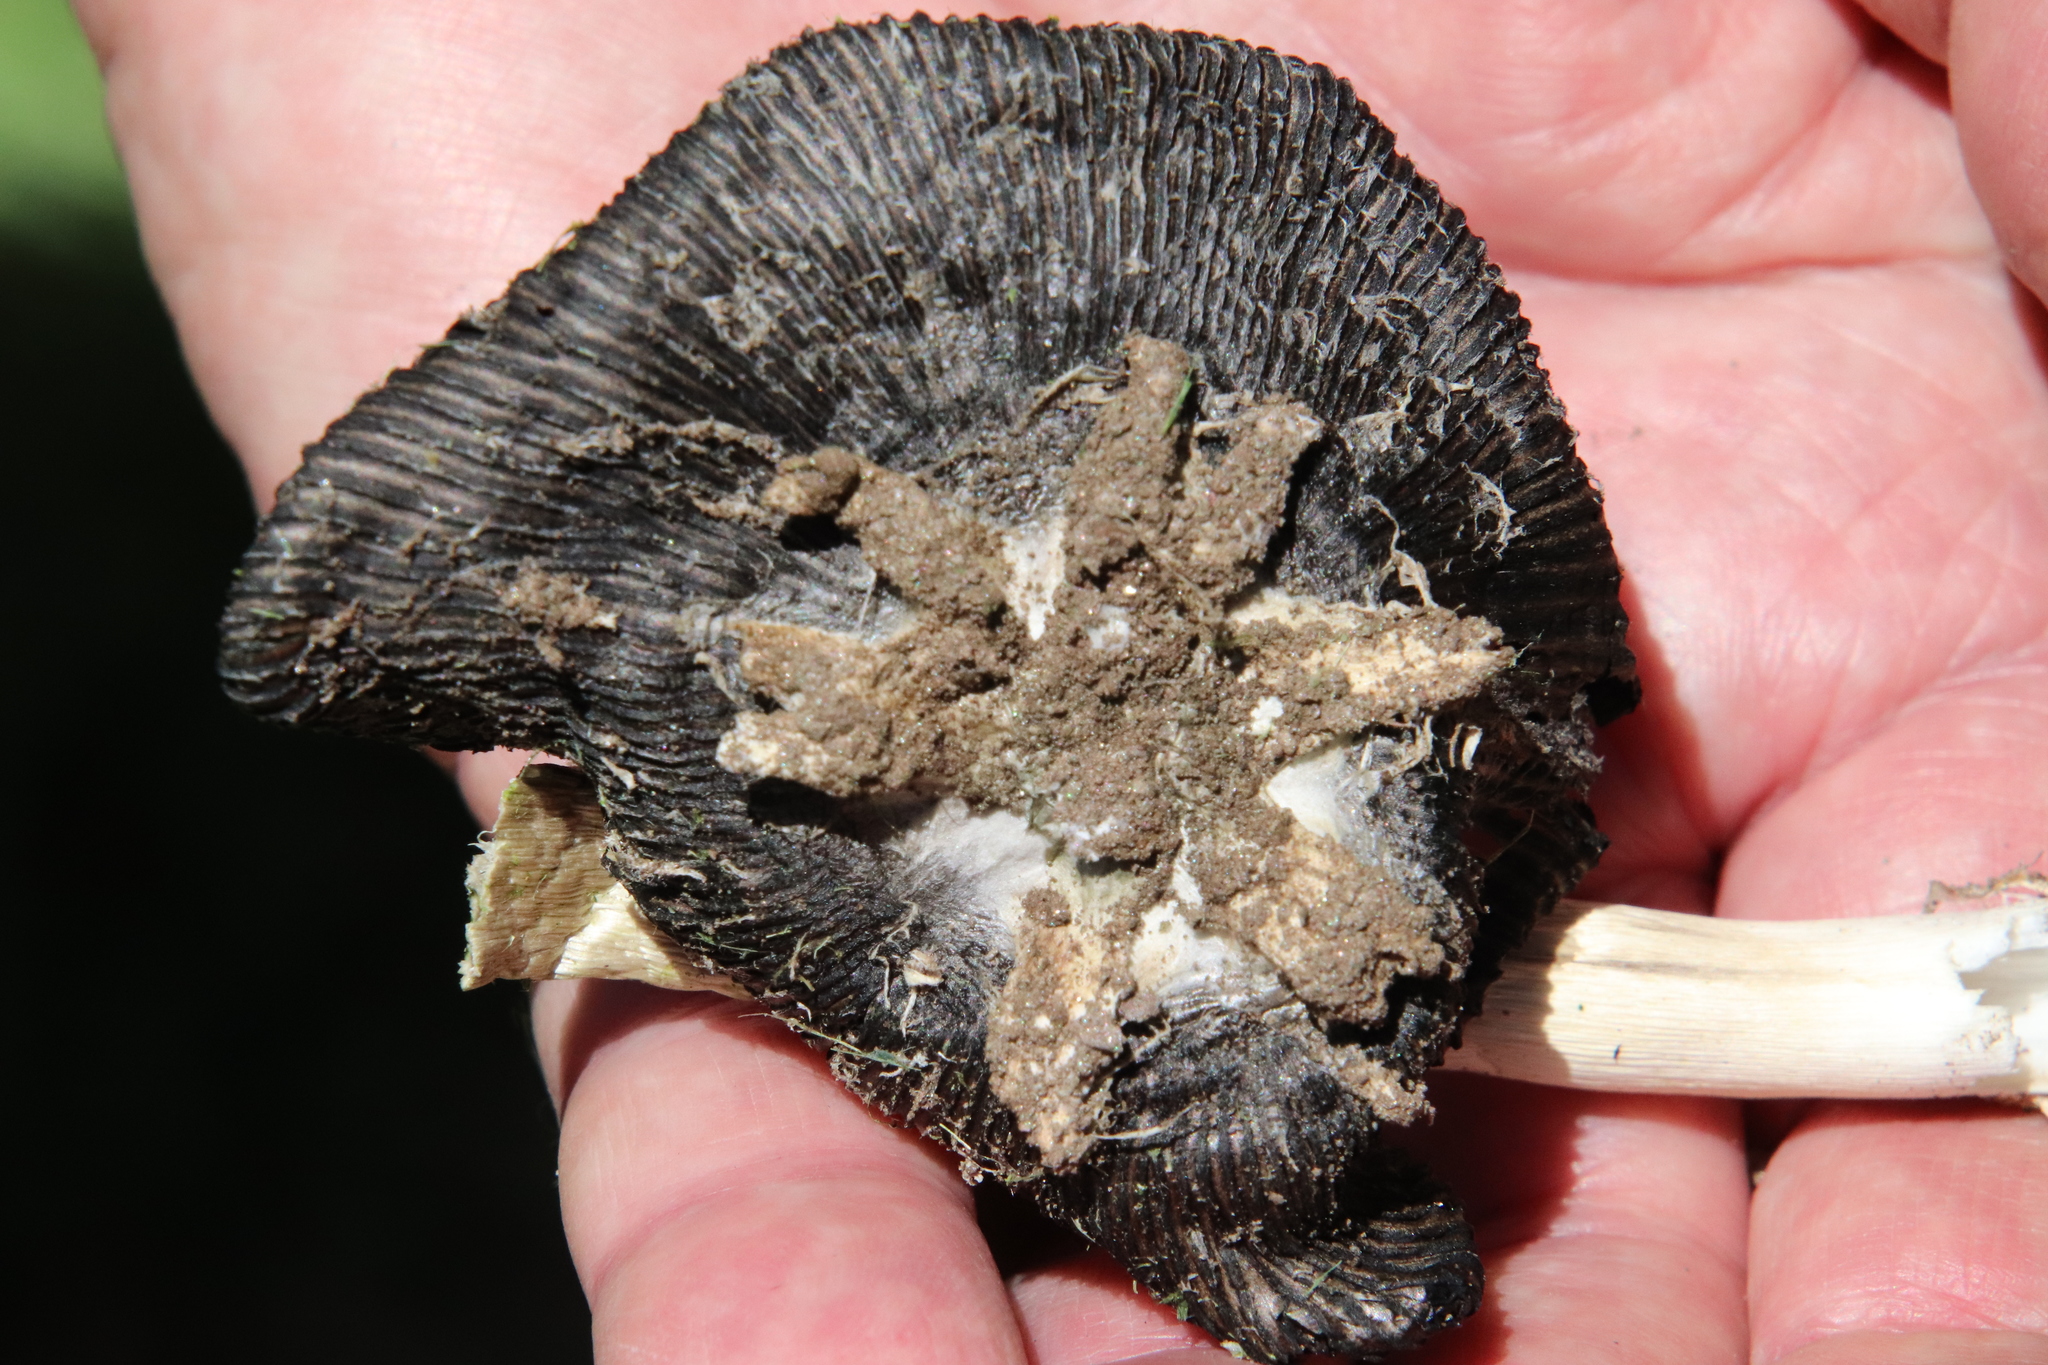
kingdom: Fungi
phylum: Basidiomycota
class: Agaricomycetes
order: Agaricales
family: Agaricaceae
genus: Coprinus
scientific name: Coprinus calyptratus
